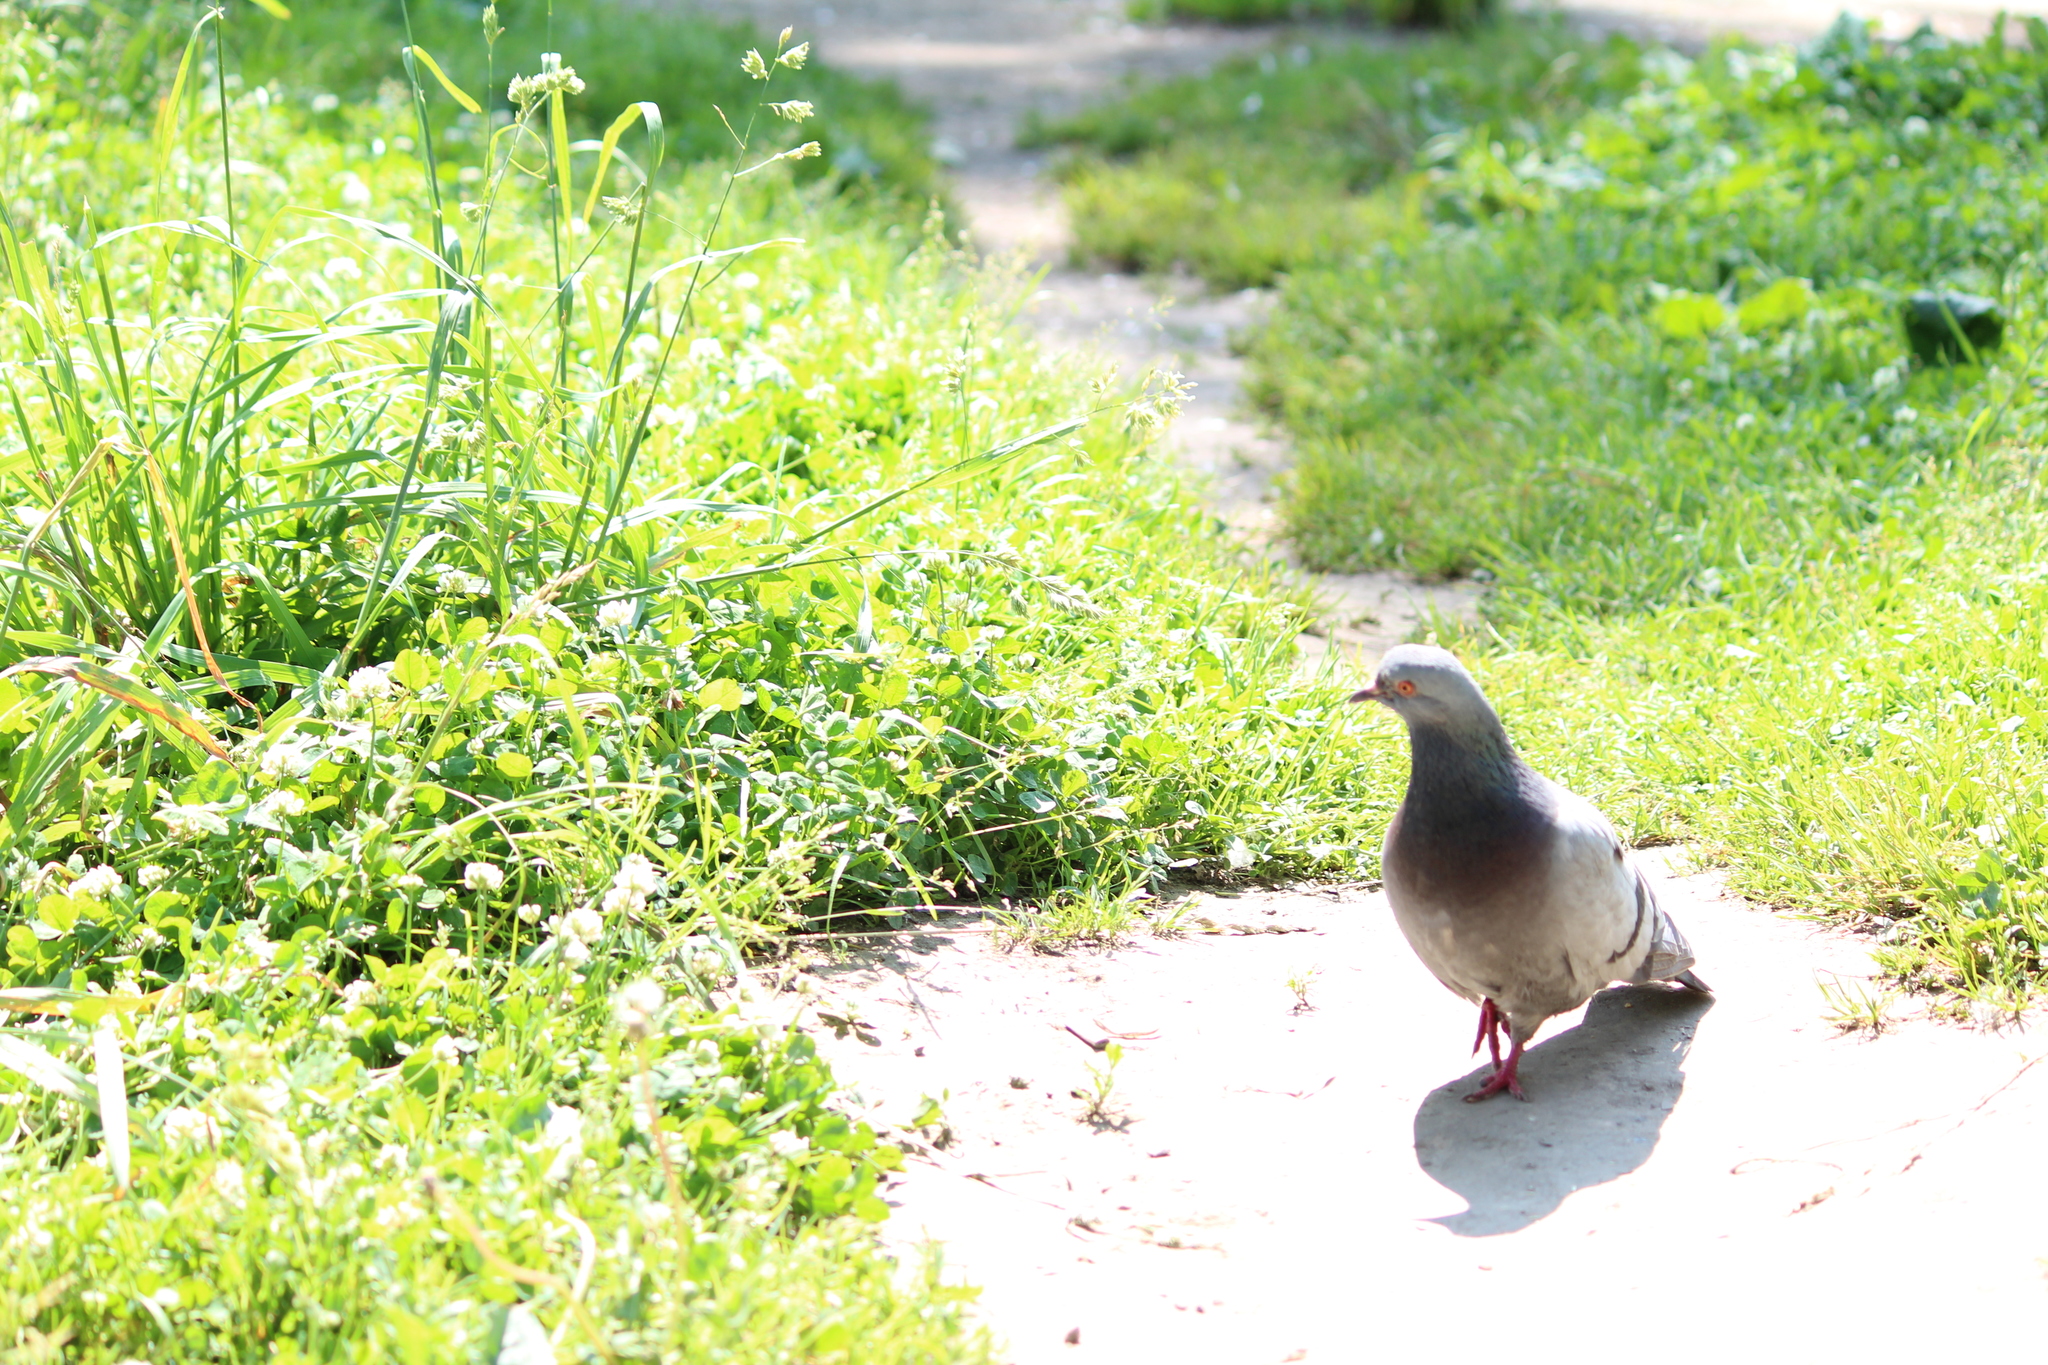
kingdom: Animalia
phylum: Chordata
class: Aves
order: Columbiformes
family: Columbidae
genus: Columba
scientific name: Columba livia
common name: Rock pigeon
